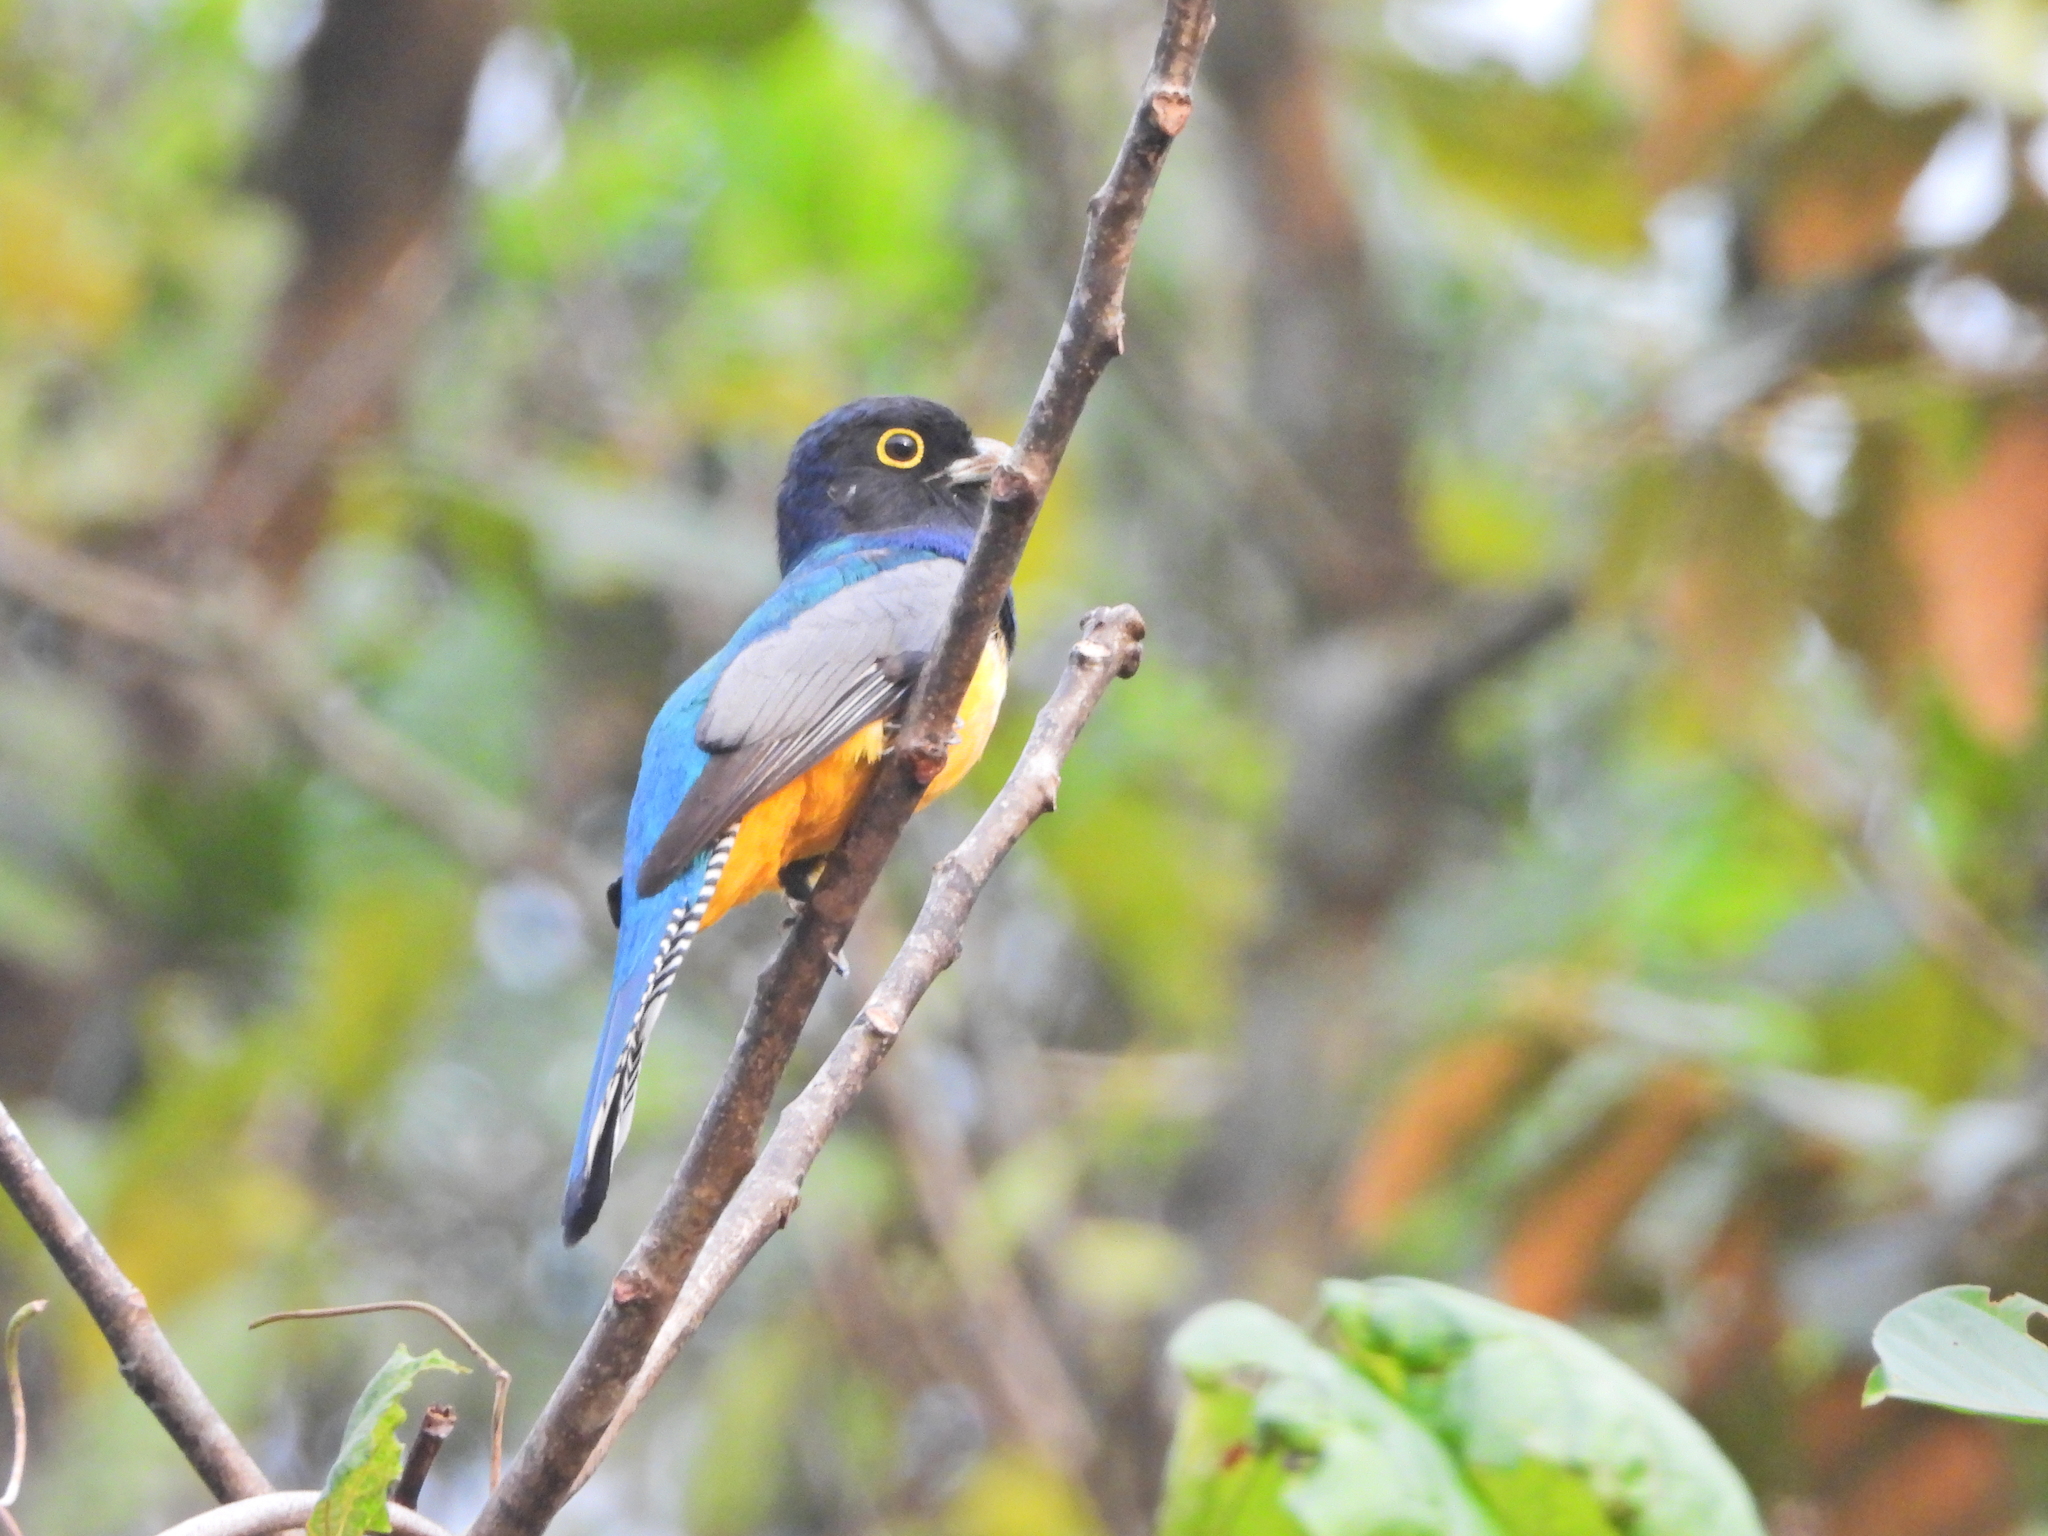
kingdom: Animalia
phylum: Chordata
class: Aves
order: Trogoniformes
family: Trogonidae
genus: Trogon
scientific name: Trogon caligatus
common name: Gartered trogon
